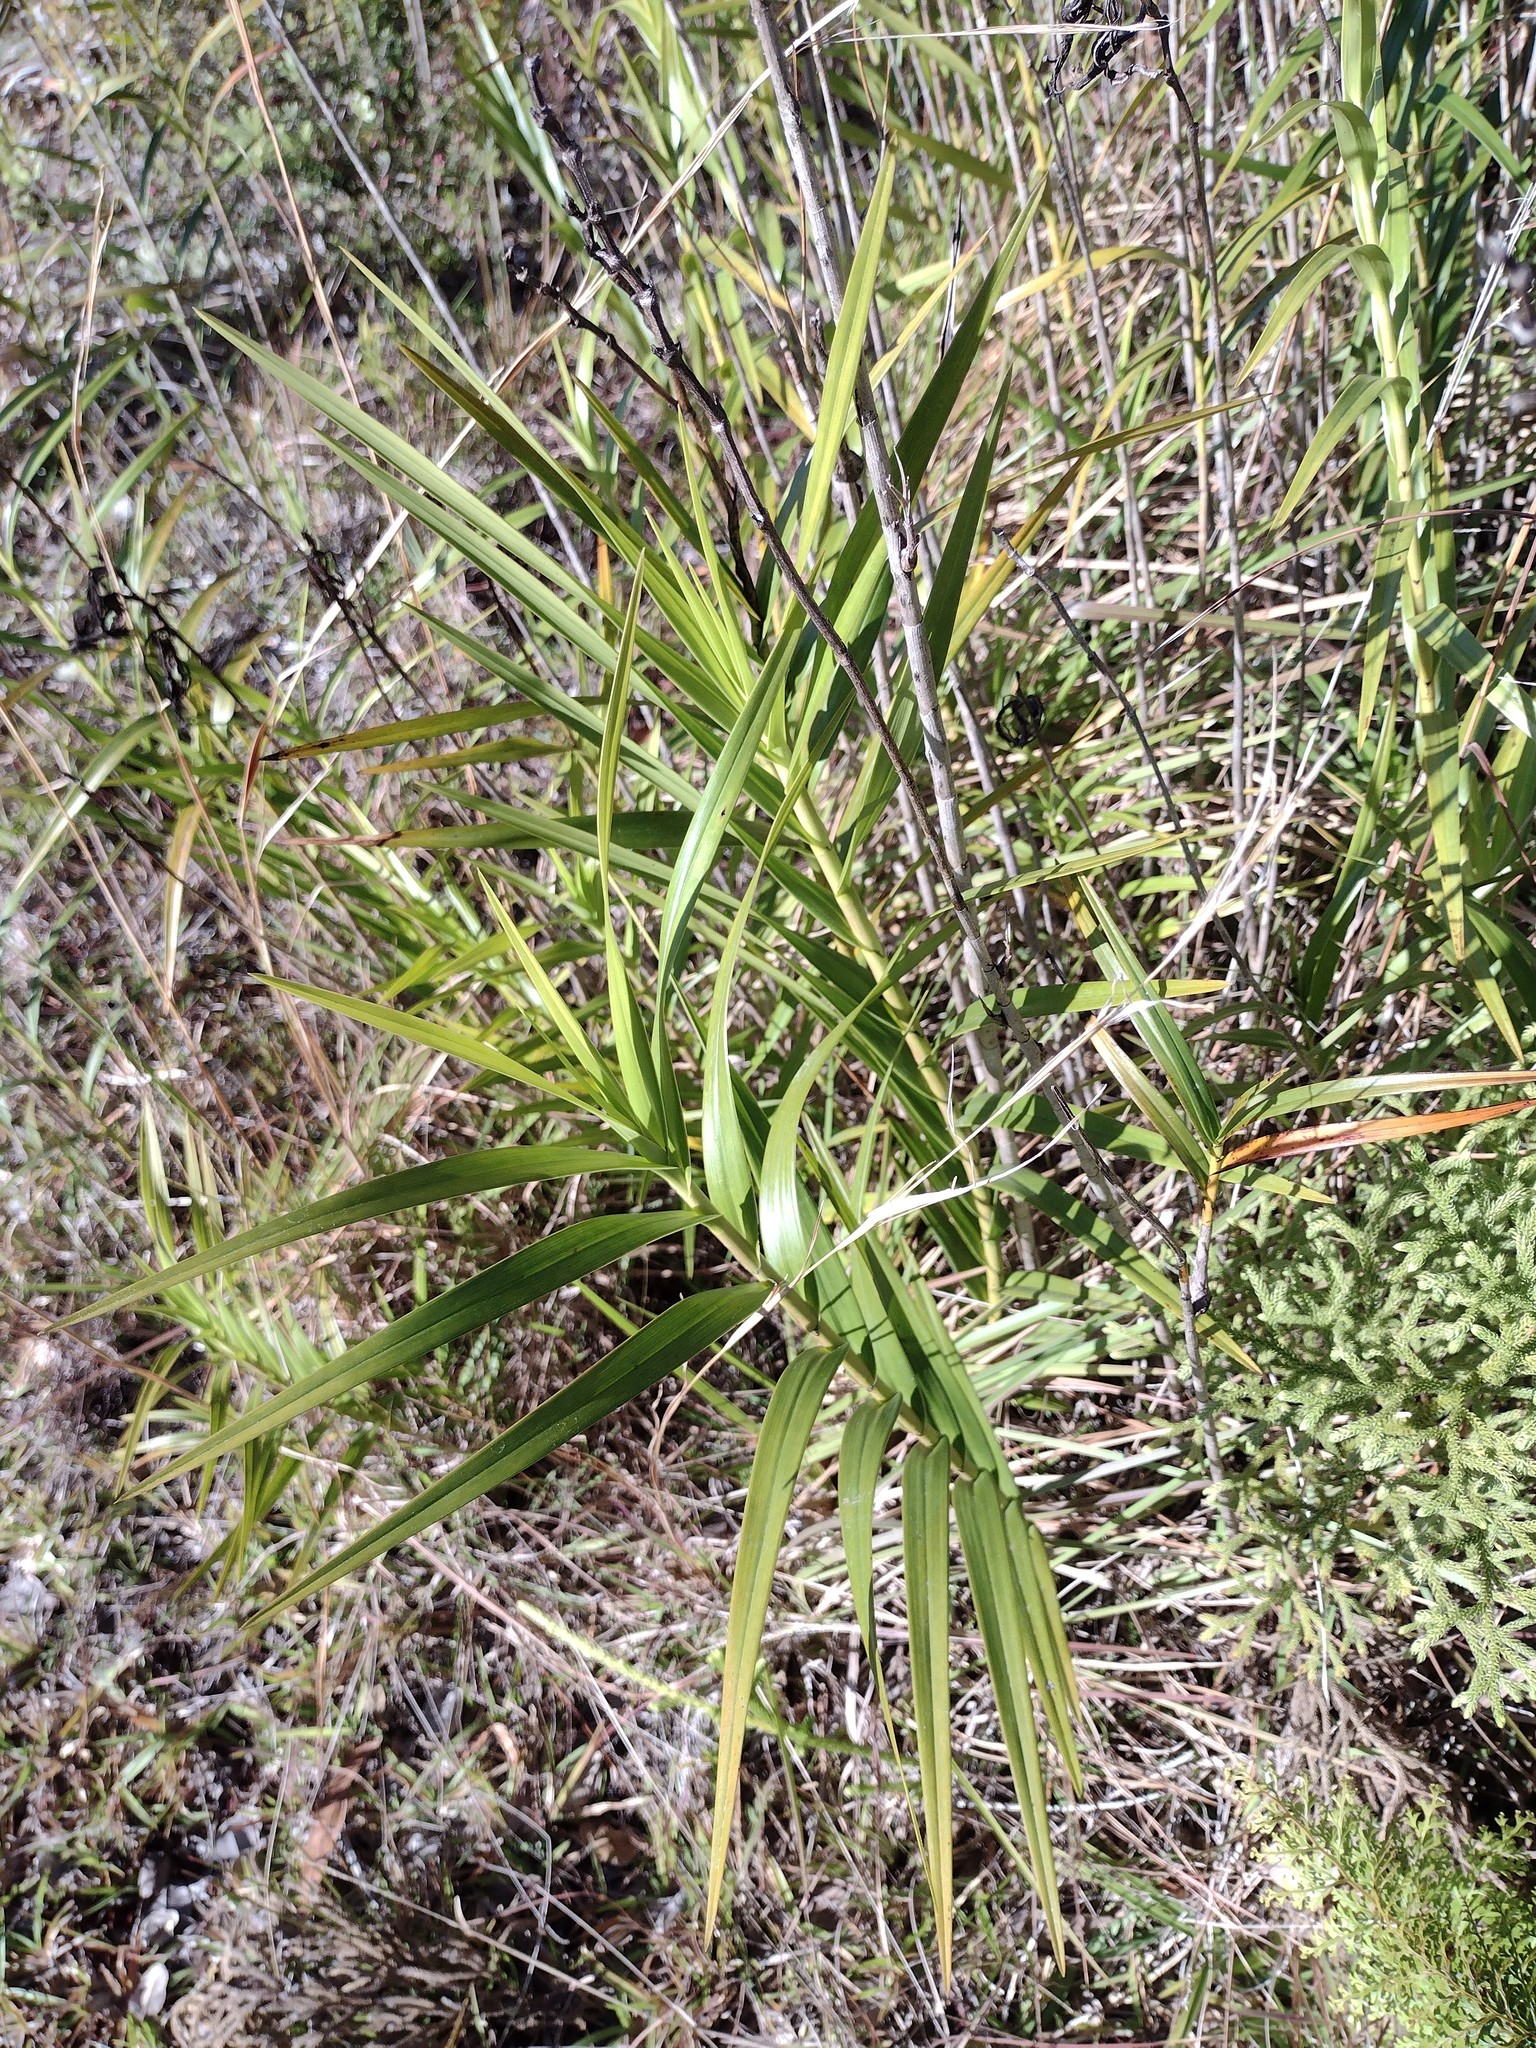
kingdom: Plantae
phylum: Tracheophyta
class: Liliopsida
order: Asparagales
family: Orchidaceae
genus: Arundina
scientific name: Arundina graminifolia
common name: Bamboo orchid
